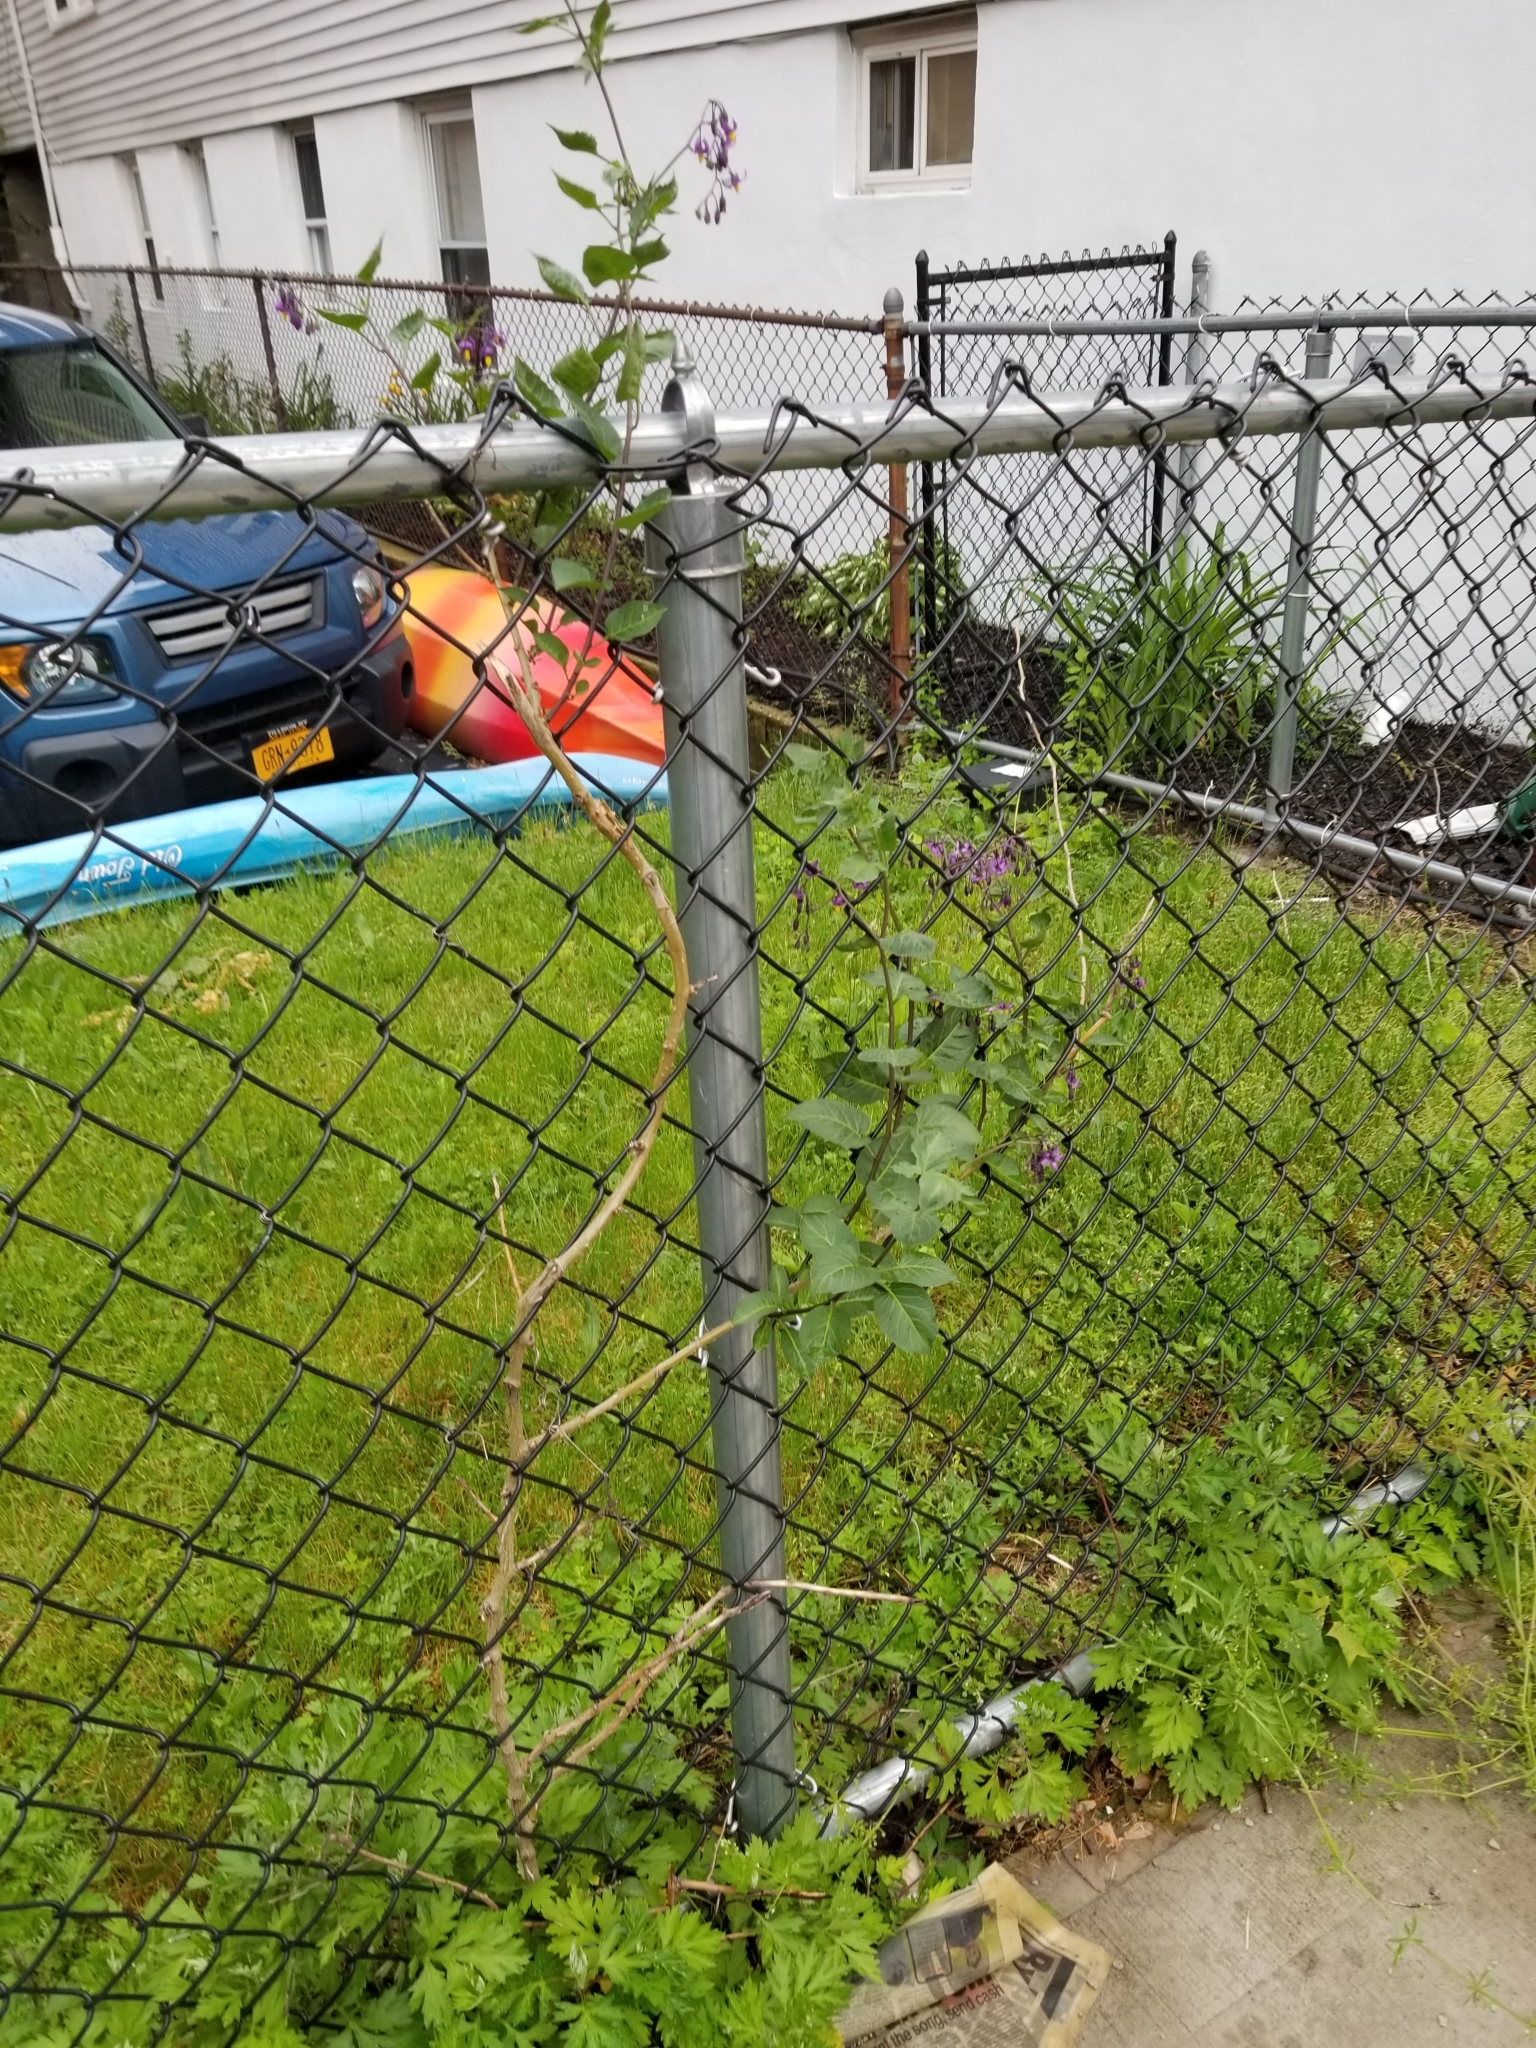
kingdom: Plantae
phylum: Tracheophyta
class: Magnoliopsida
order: Solanales
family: Solanaceae
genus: Solanum
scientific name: Solanum dulcamara
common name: Climbing nightshade
